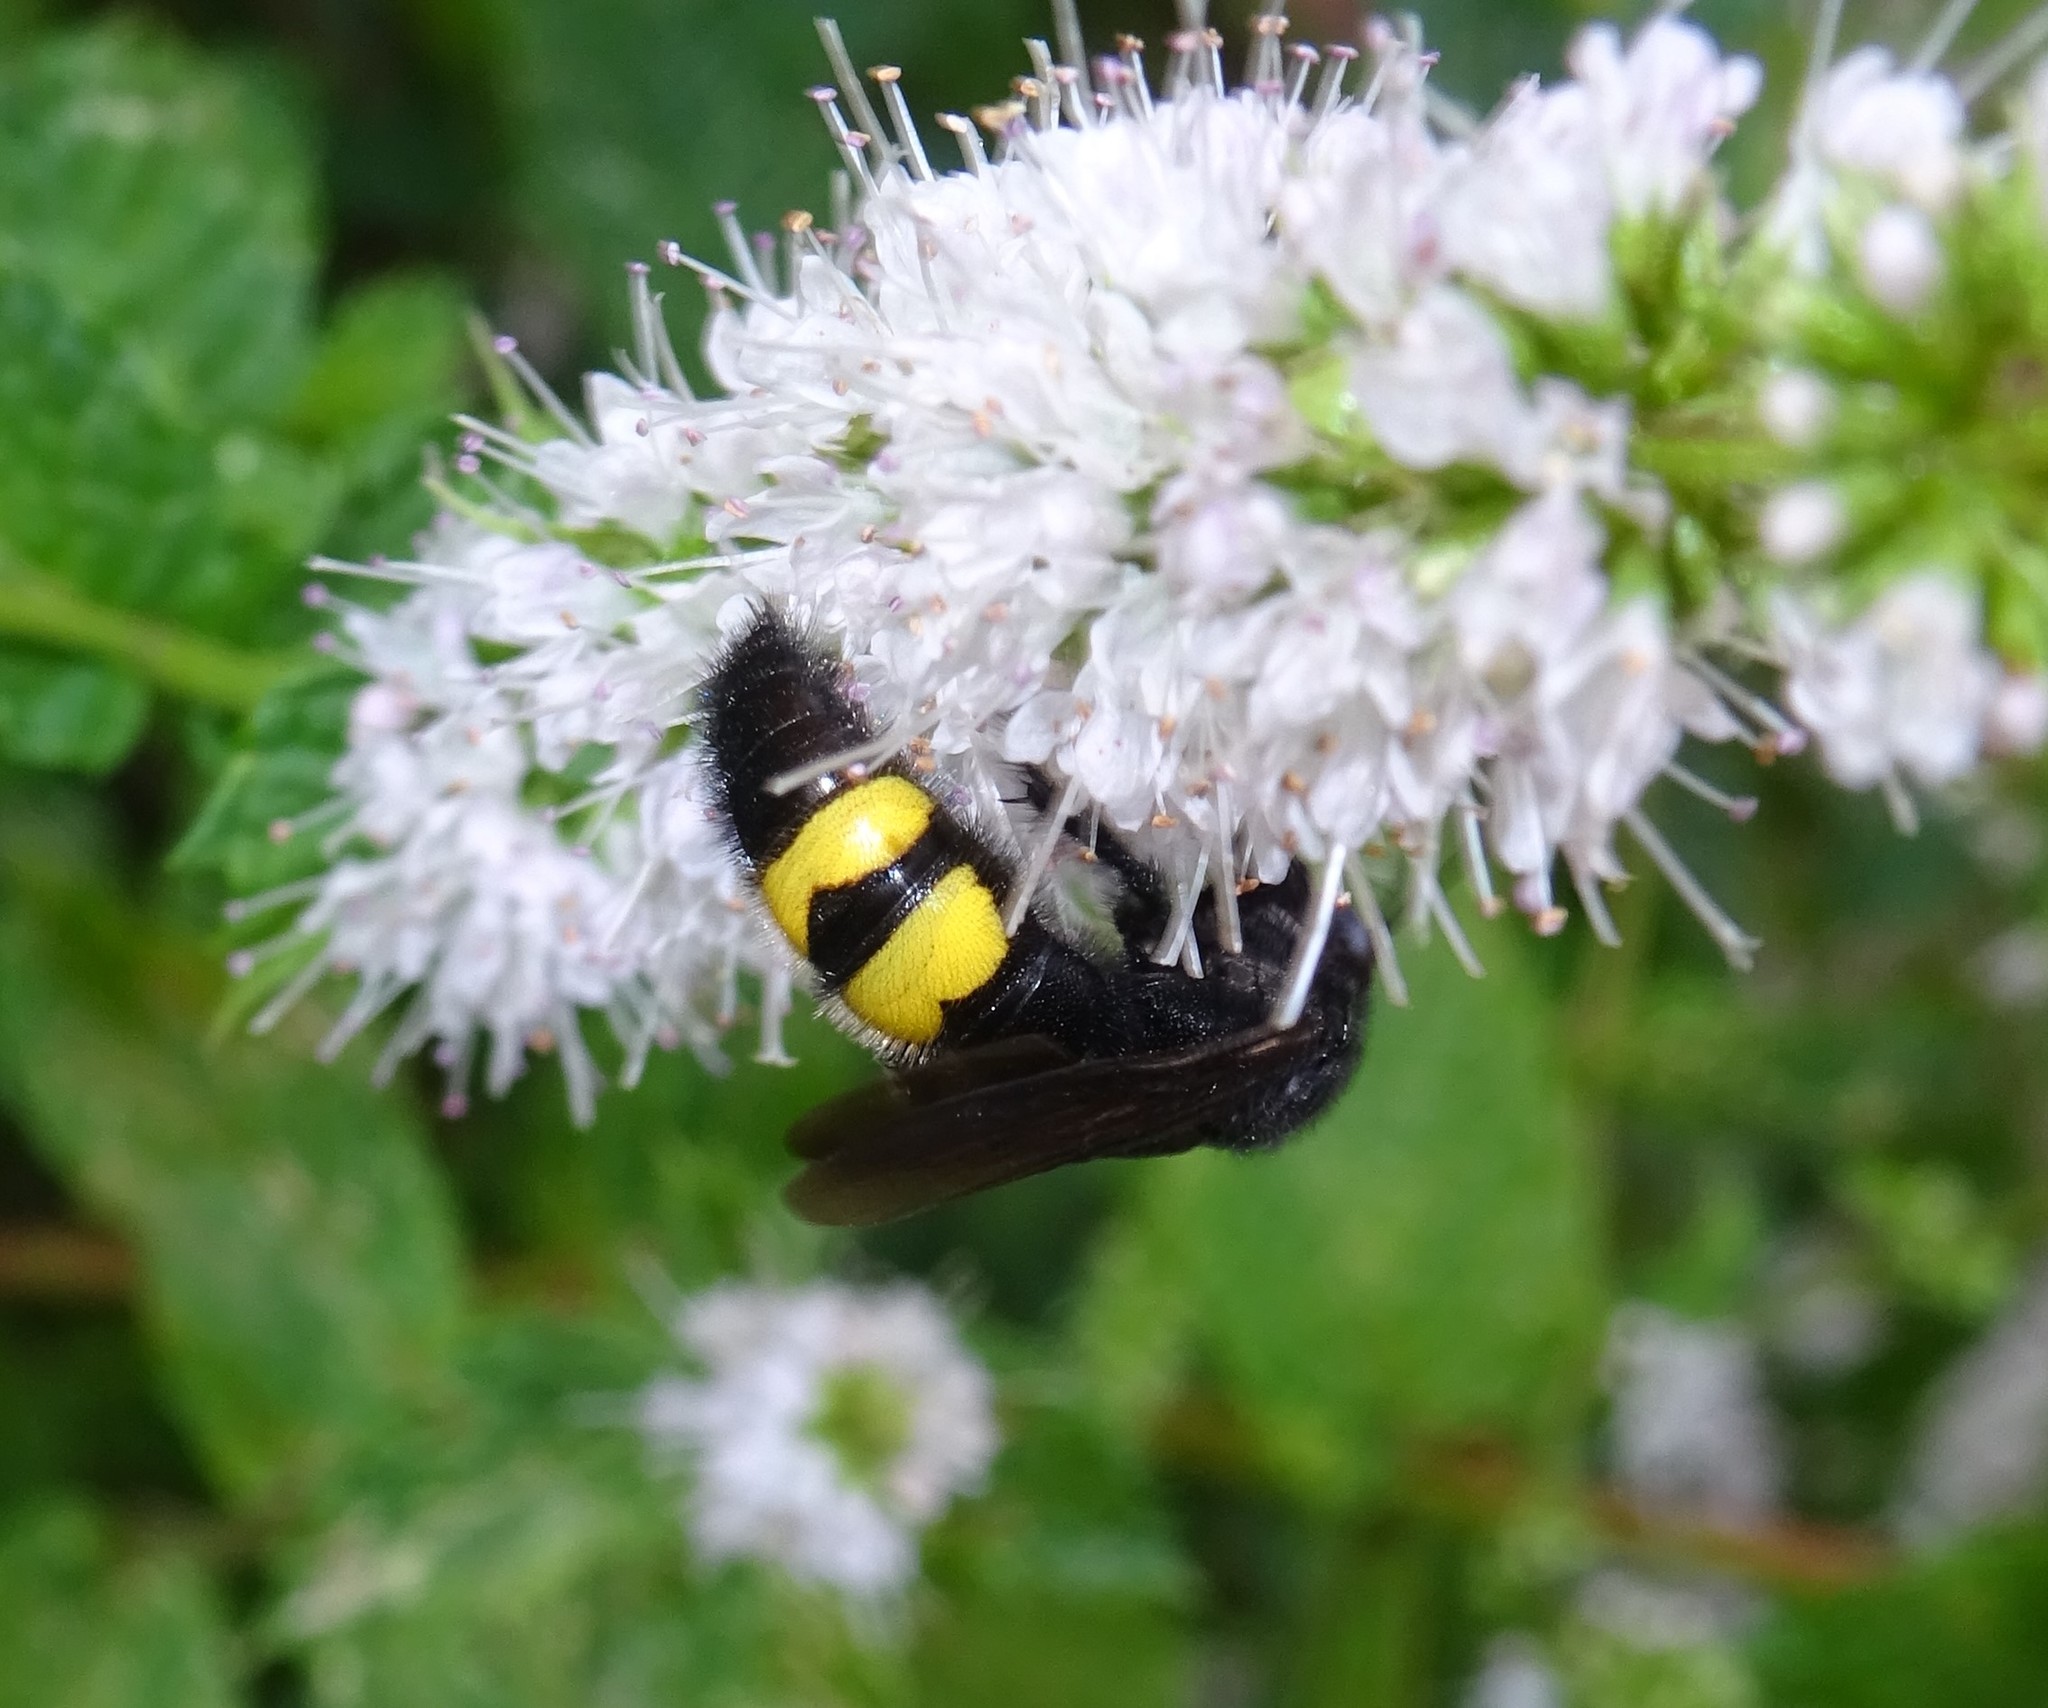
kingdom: Animalia
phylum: Arthropoda
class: Insecta
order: Hymenoptera
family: Scoliidae
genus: Scolia
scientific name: Scolia hirta
